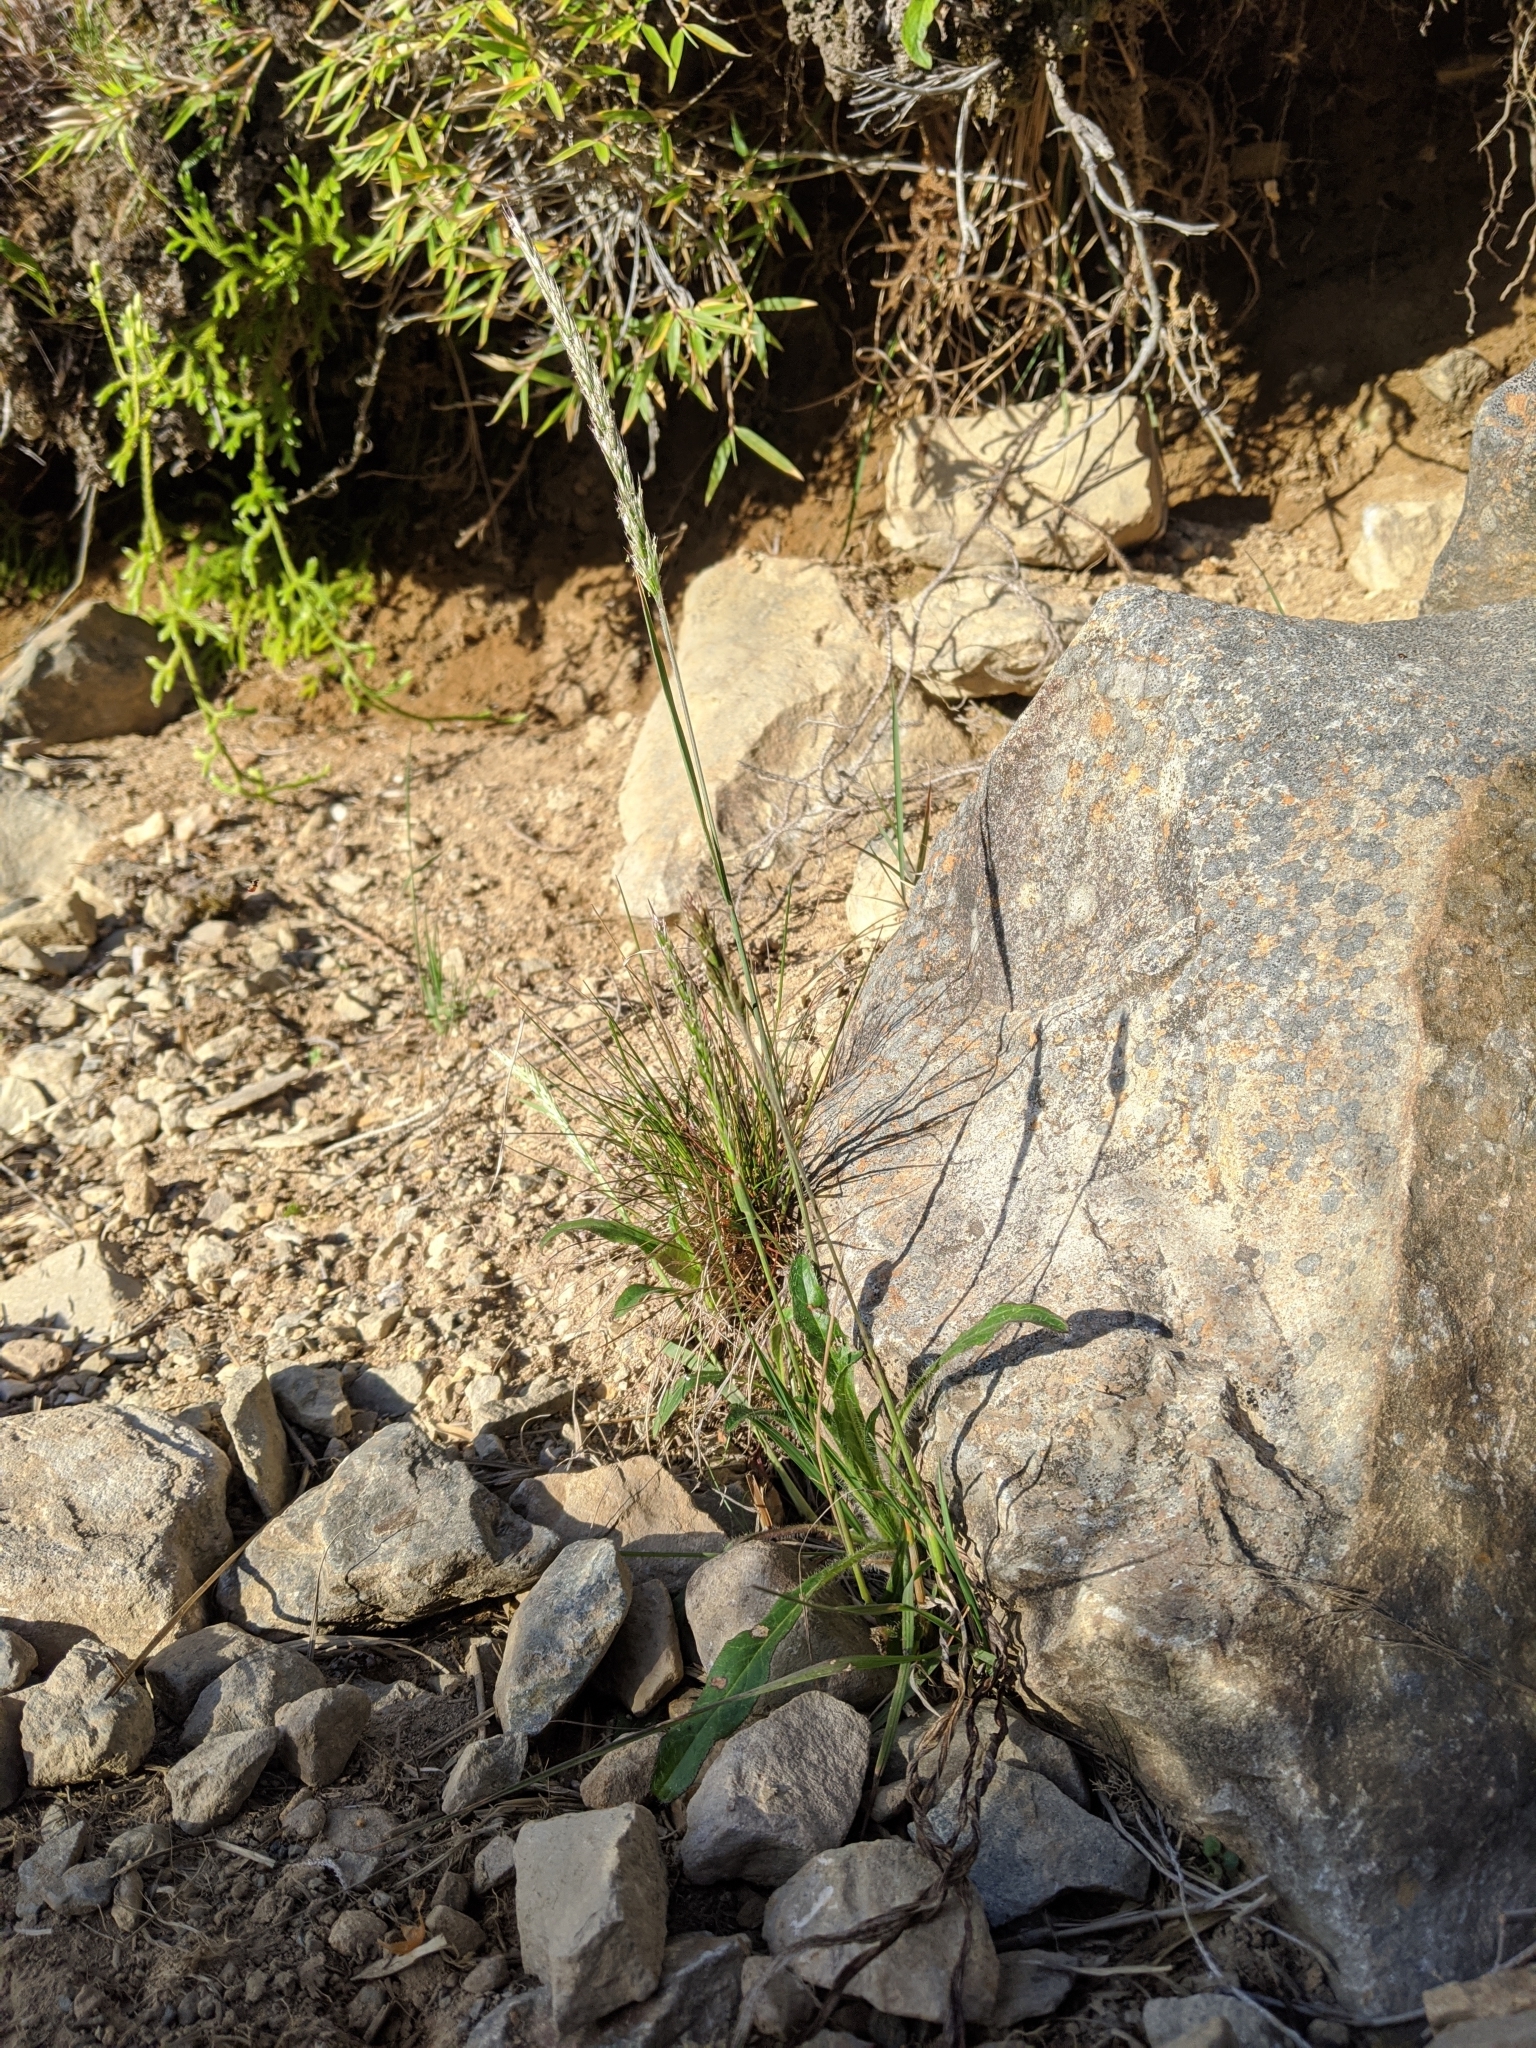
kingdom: Plantae
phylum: Tracheophyta
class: Liliopsida
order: Poales
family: Poaceae
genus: Koeleria
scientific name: Koeleria spicata
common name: Mountain trisetum
